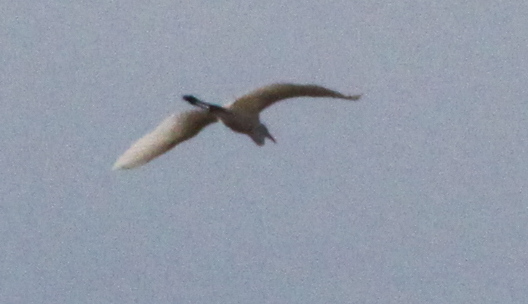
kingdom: Animalia
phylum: Chordata
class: Aves
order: Pelecaniformes
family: Ardeidae
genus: Ardea
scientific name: Ardea alba
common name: Great egret
